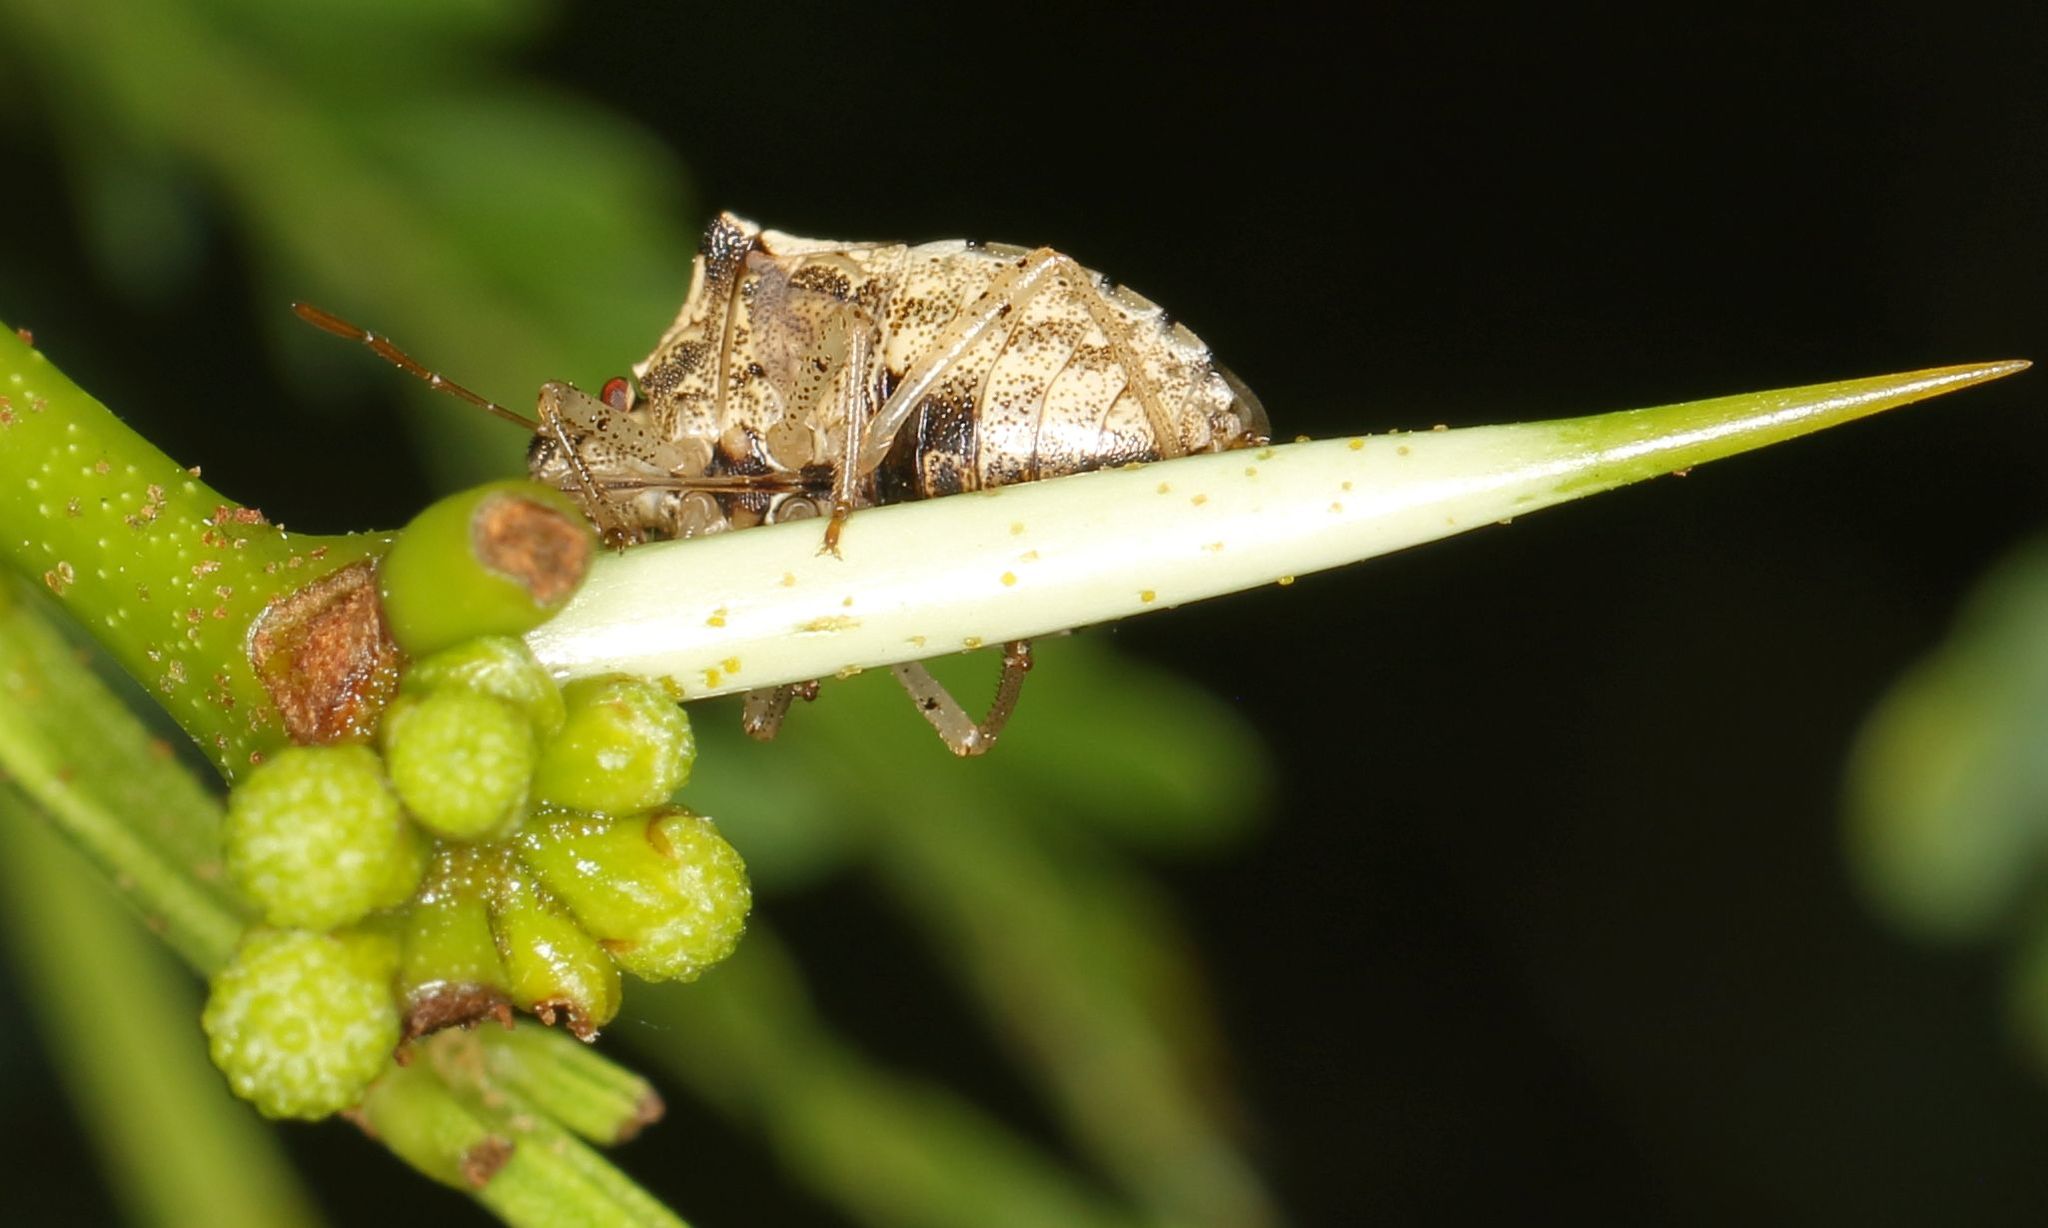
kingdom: Animalia
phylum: Arthropoda
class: Insecta
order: Hemiptera
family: Pentatomidae
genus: Carbula
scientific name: Carbula limpoponis
